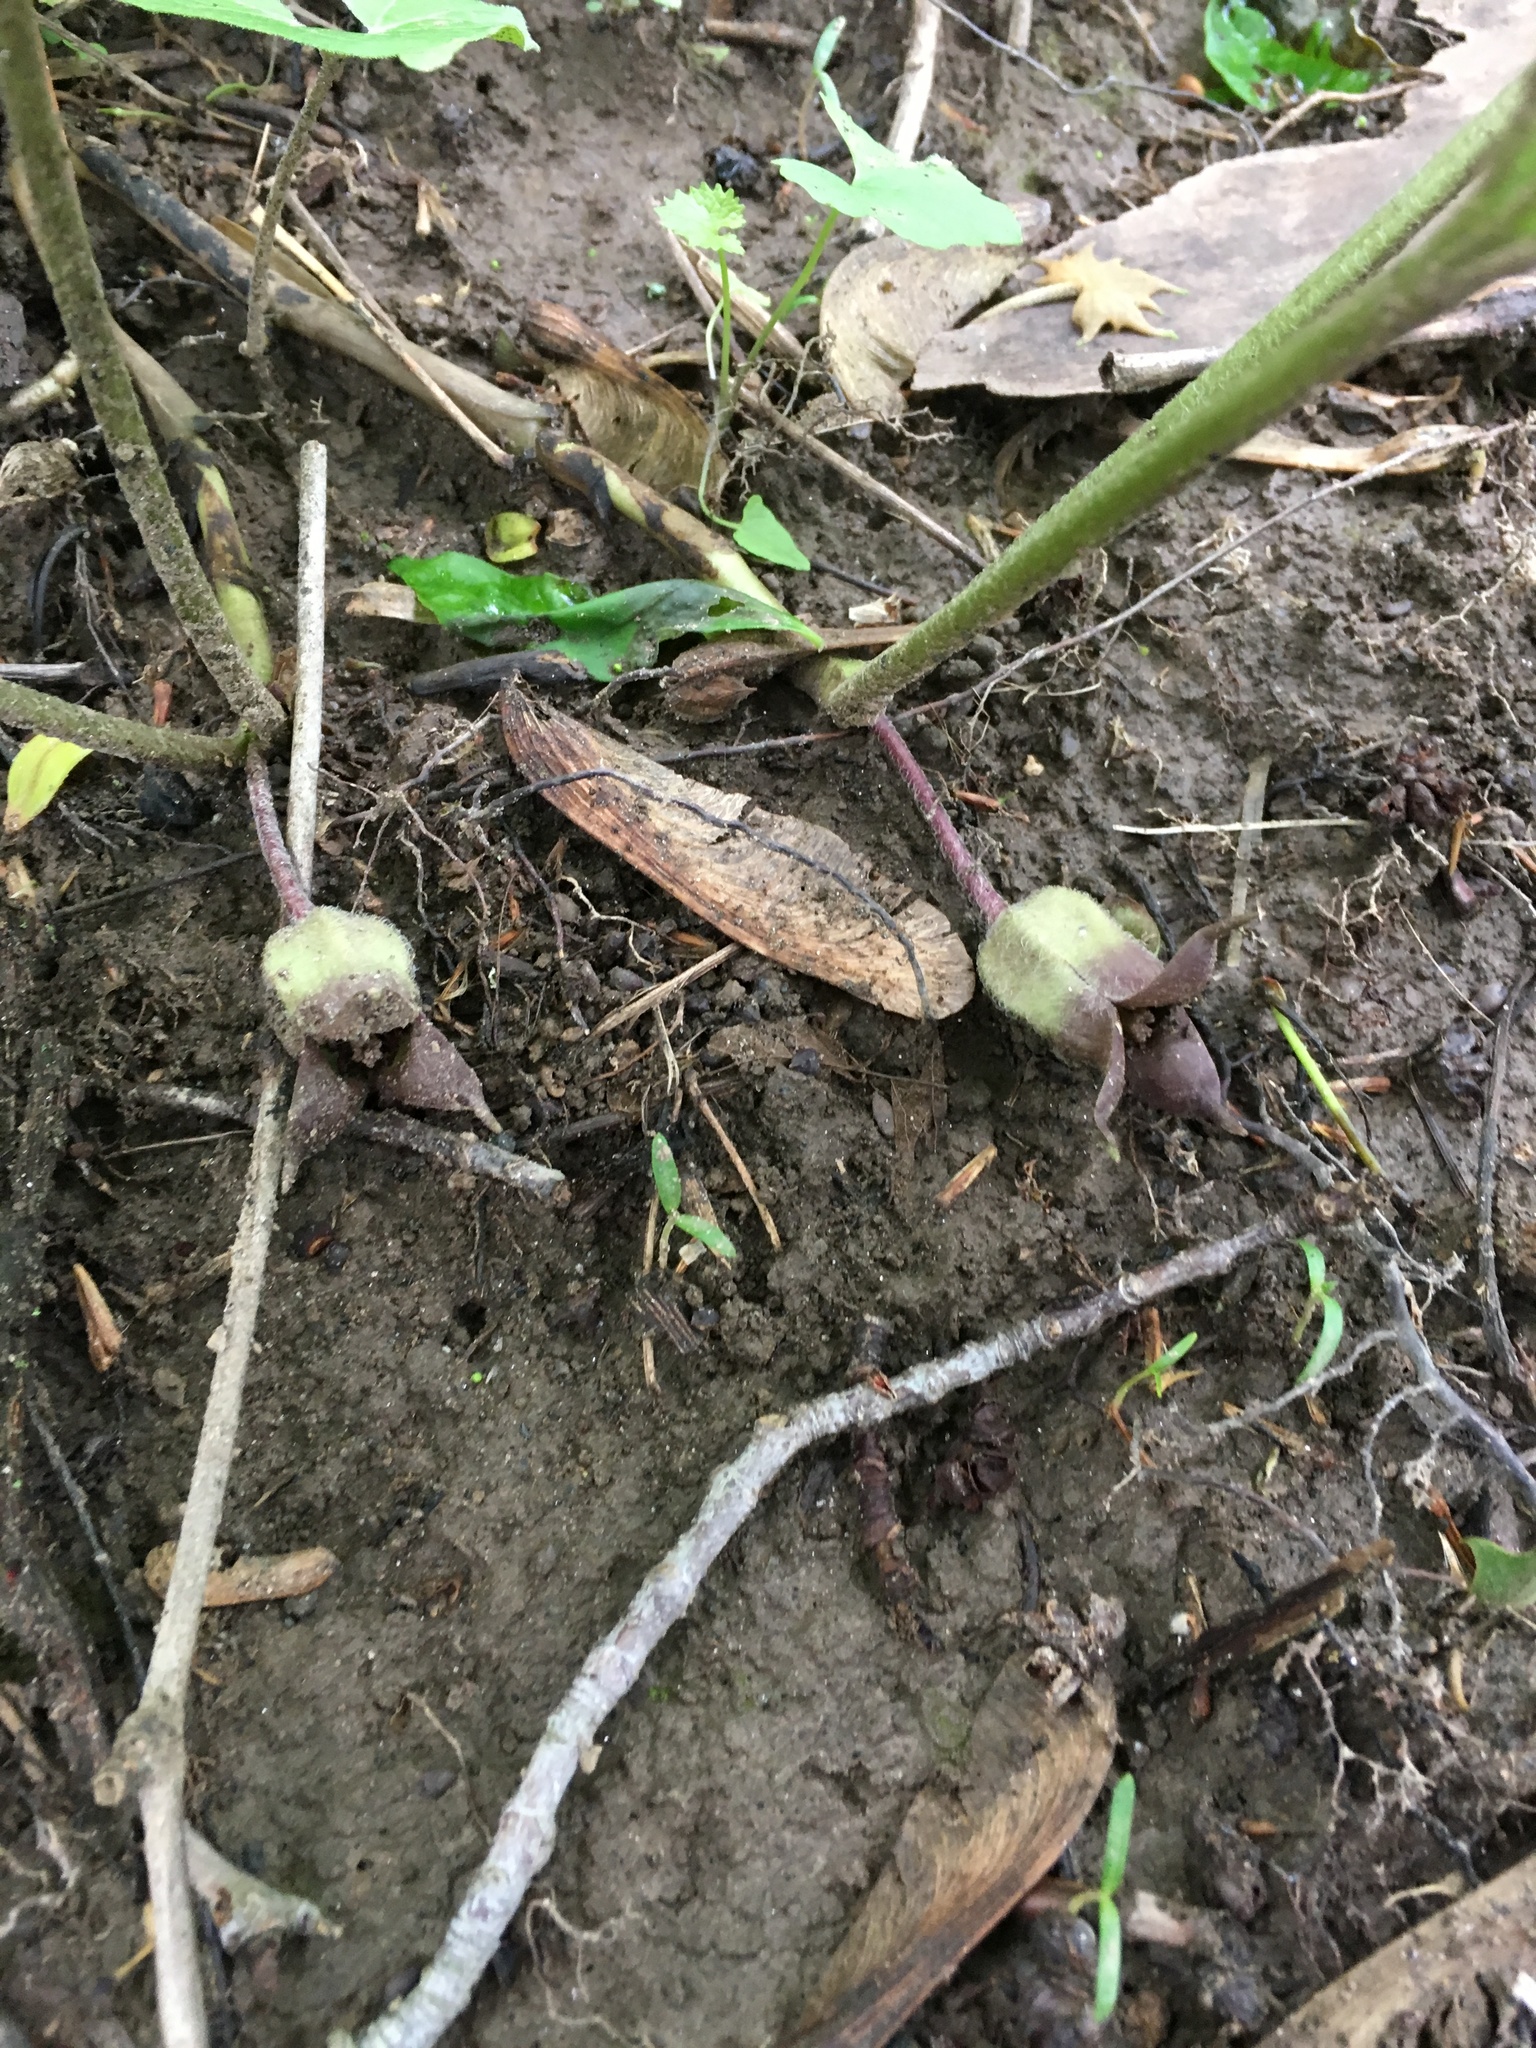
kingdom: Plantae
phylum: Tracheophyta
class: Magnoliopsida
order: Piperales
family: Aristolochiaceae
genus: Asarum
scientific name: Asarum canadense
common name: Wild ginger
